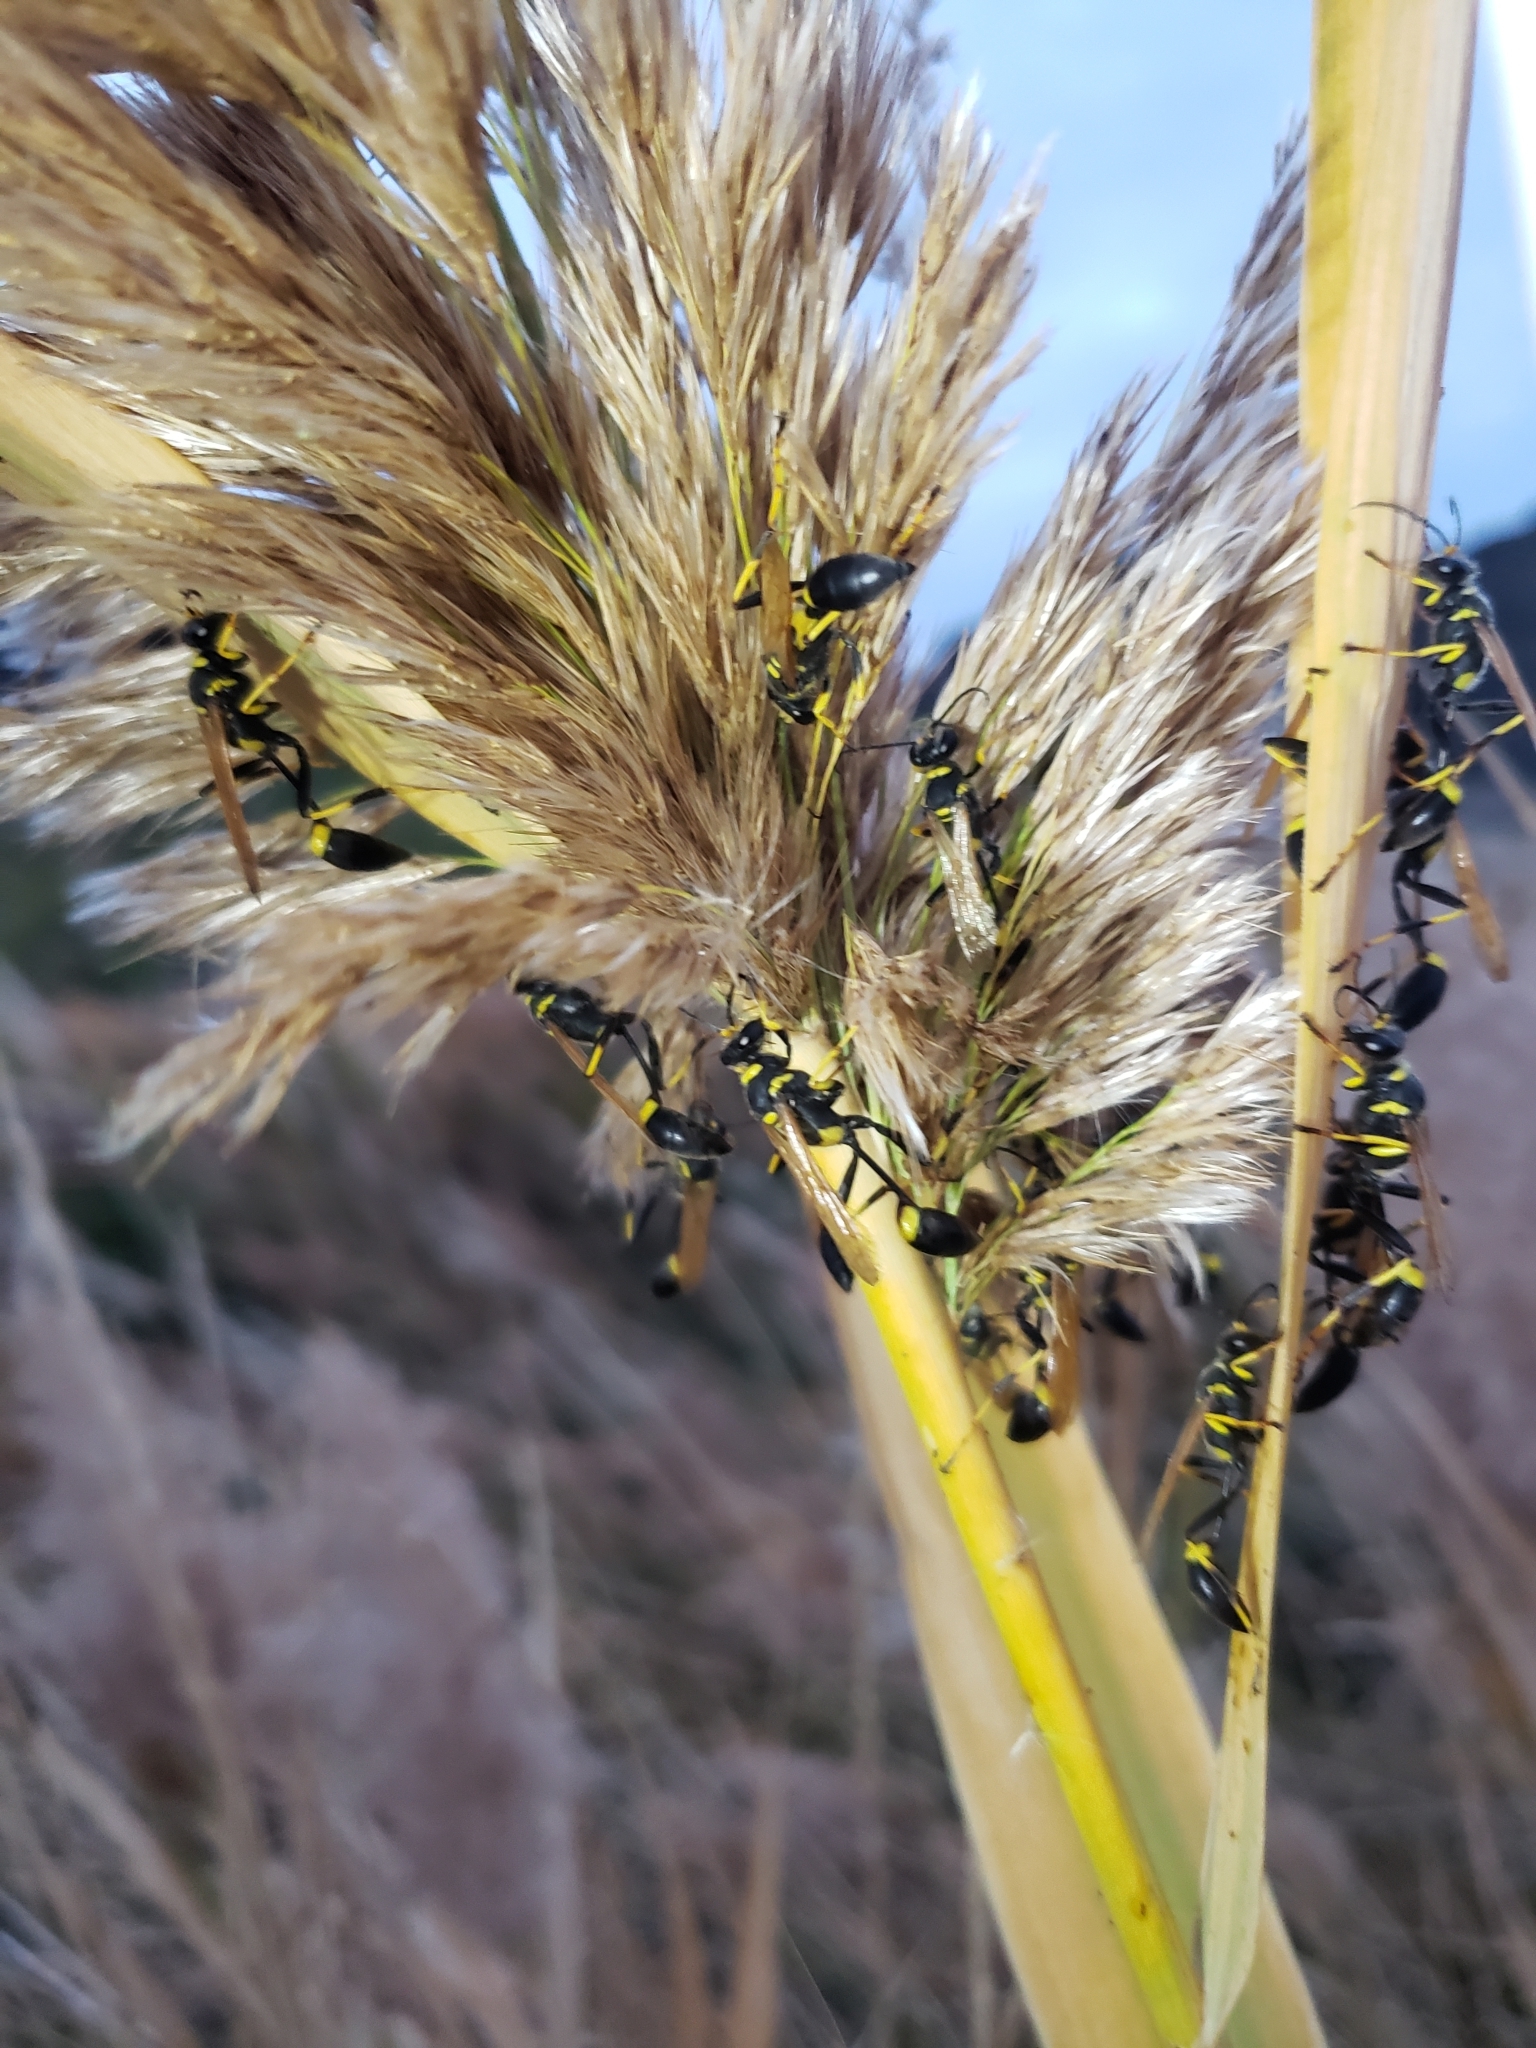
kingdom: Animalia
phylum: Arthropoda
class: Insecta
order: Hymenoptera
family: Sphecidae
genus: Sceliphron
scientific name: Sceliphron caementarium
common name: Mud dauber
